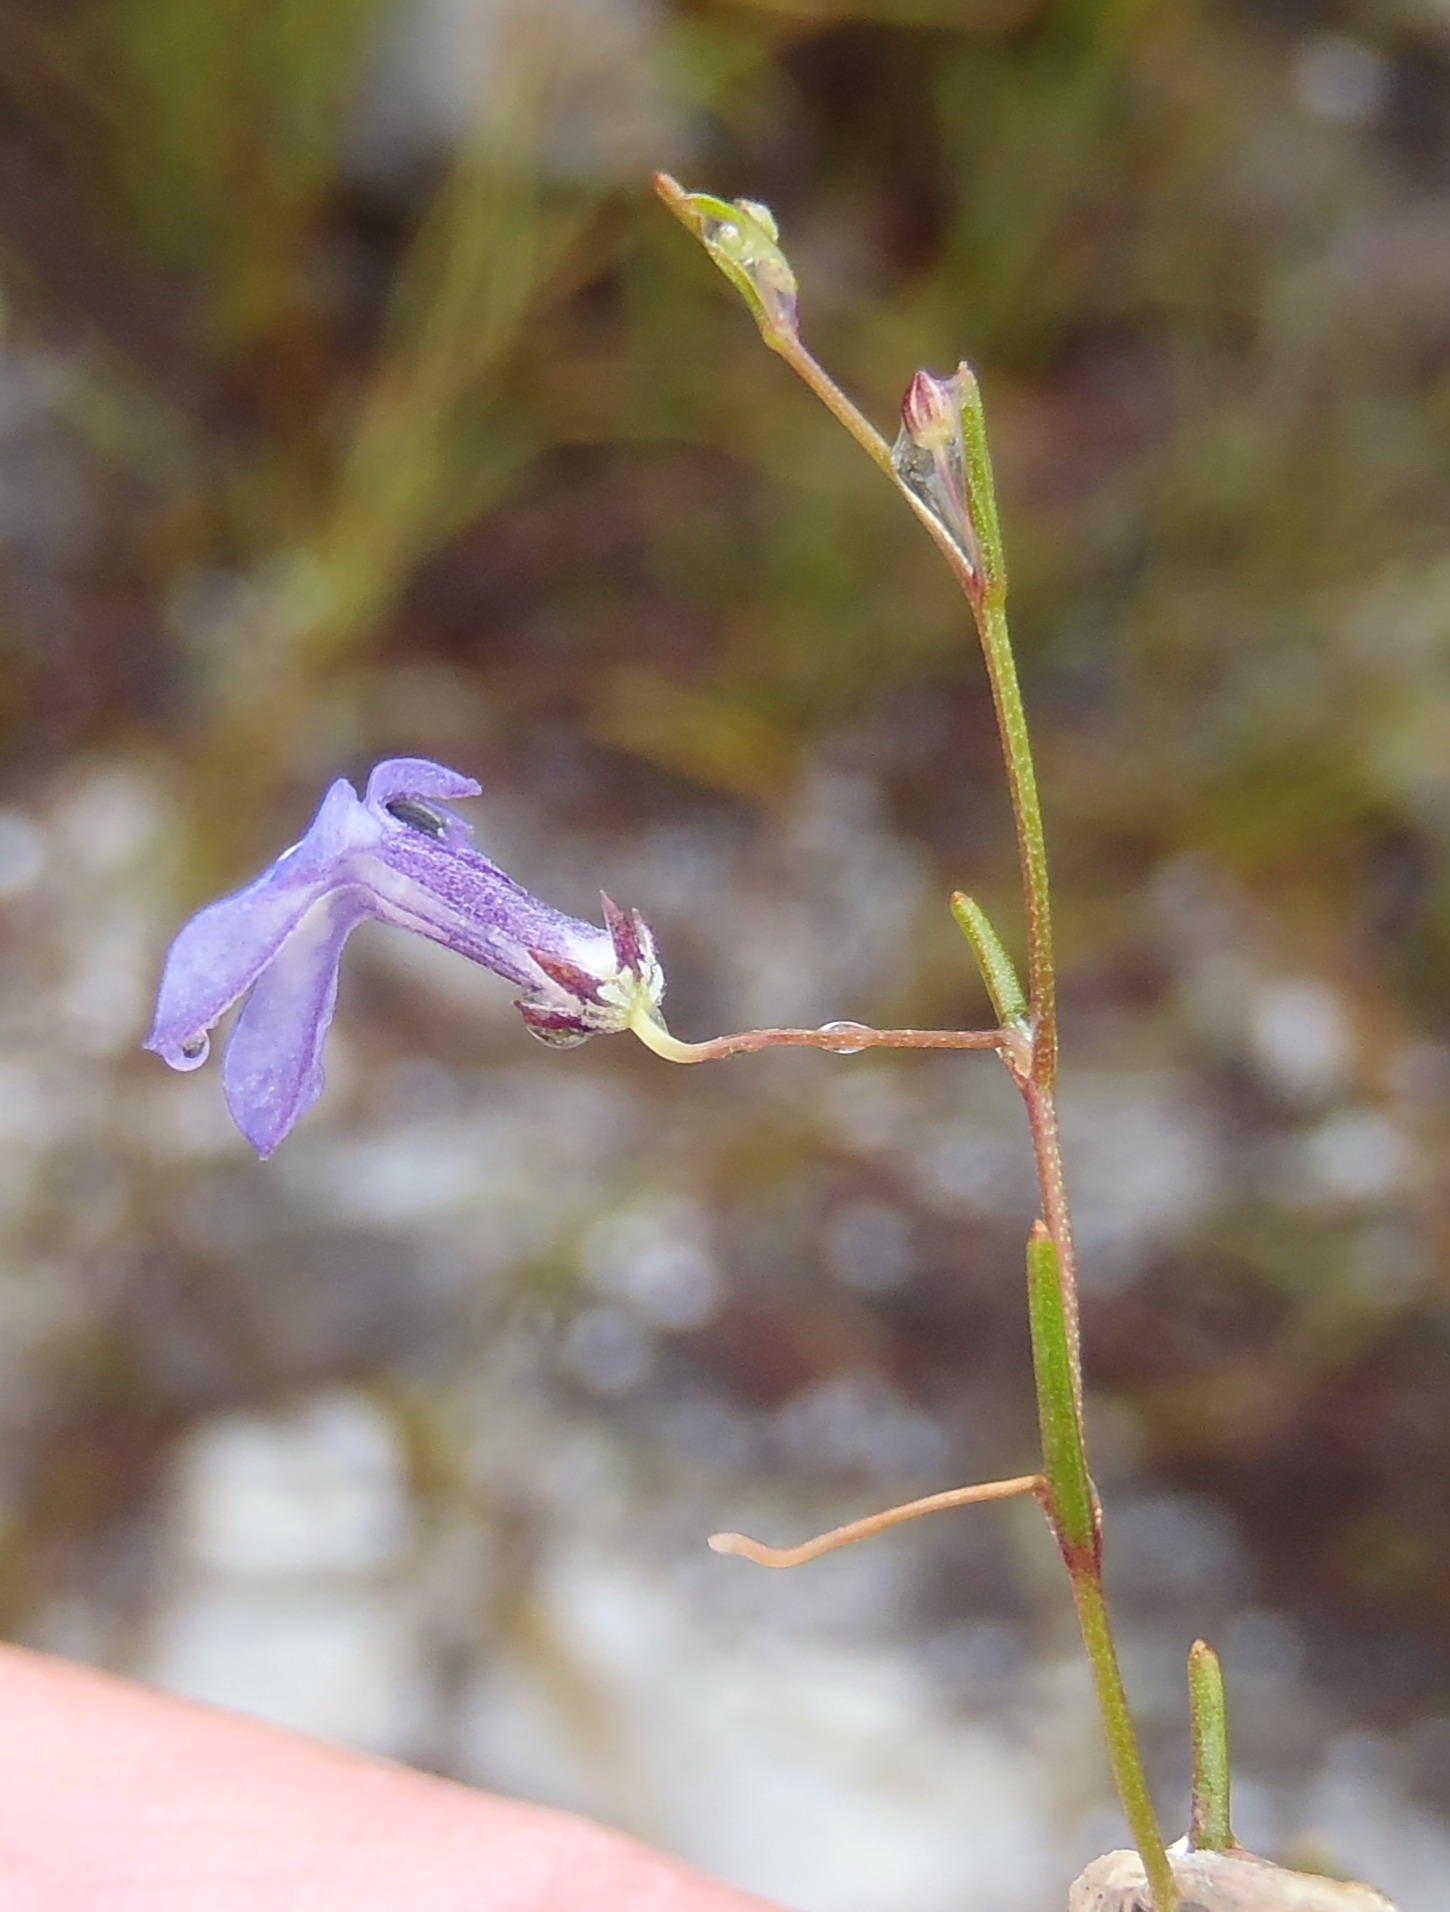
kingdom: Plantae
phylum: Tracheophyta
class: Magnoliopsida
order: Asterales
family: Campanulaceae
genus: Lobelia
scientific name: Lobelia setacea
